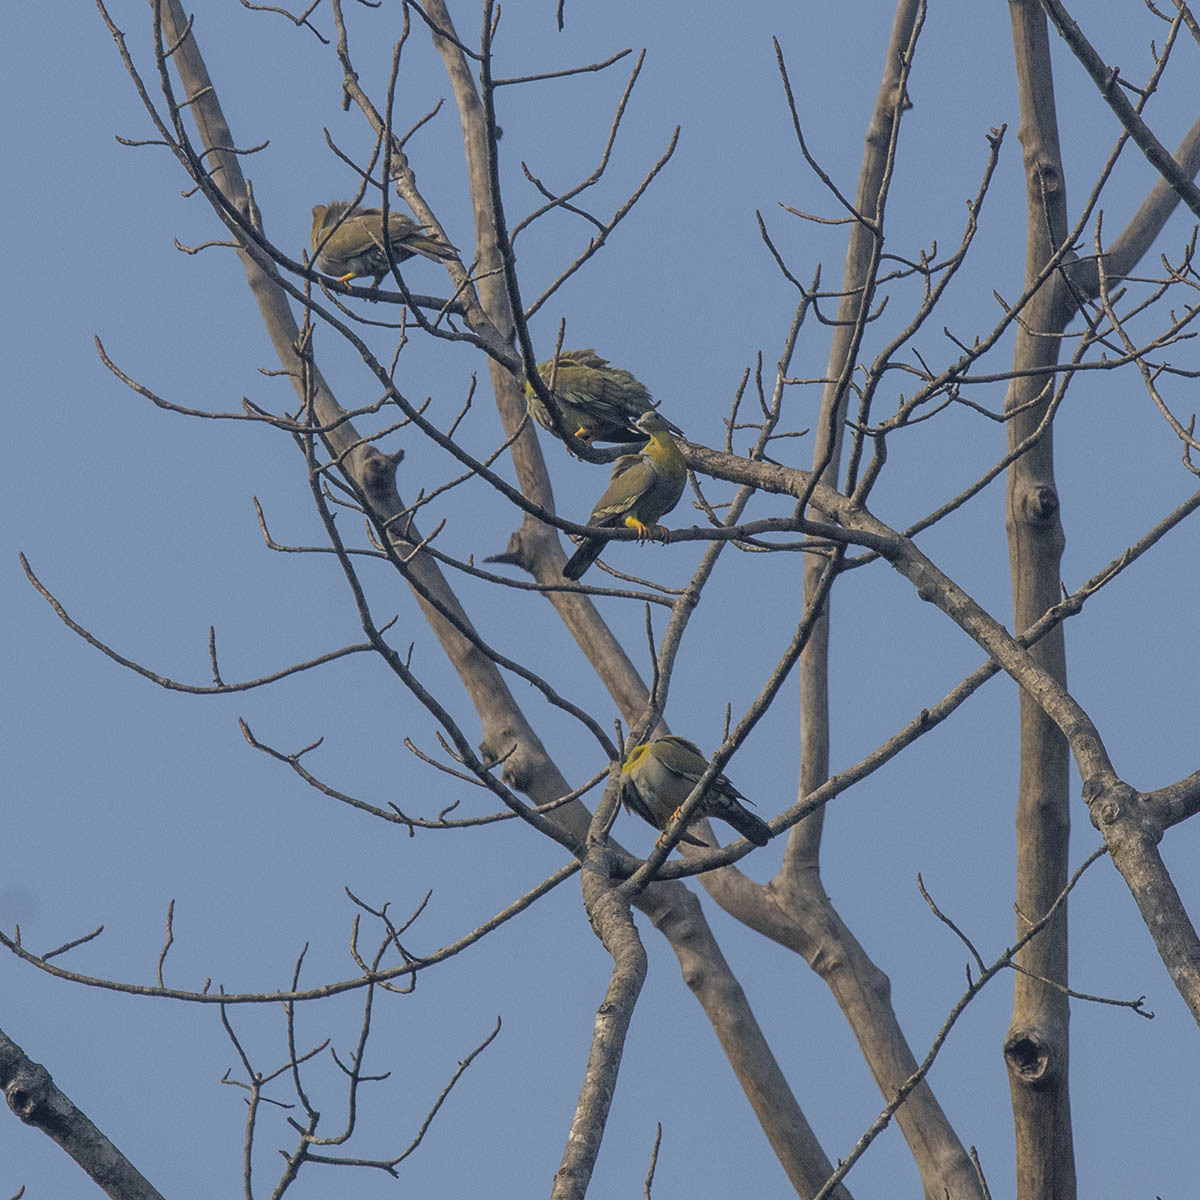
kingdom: Animalia
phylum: Chordata
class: Aves
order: Columbiformes
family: Columbidae
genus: Treron
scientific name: Treron phoenicopterus
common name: Yellow-footed green pigeon
